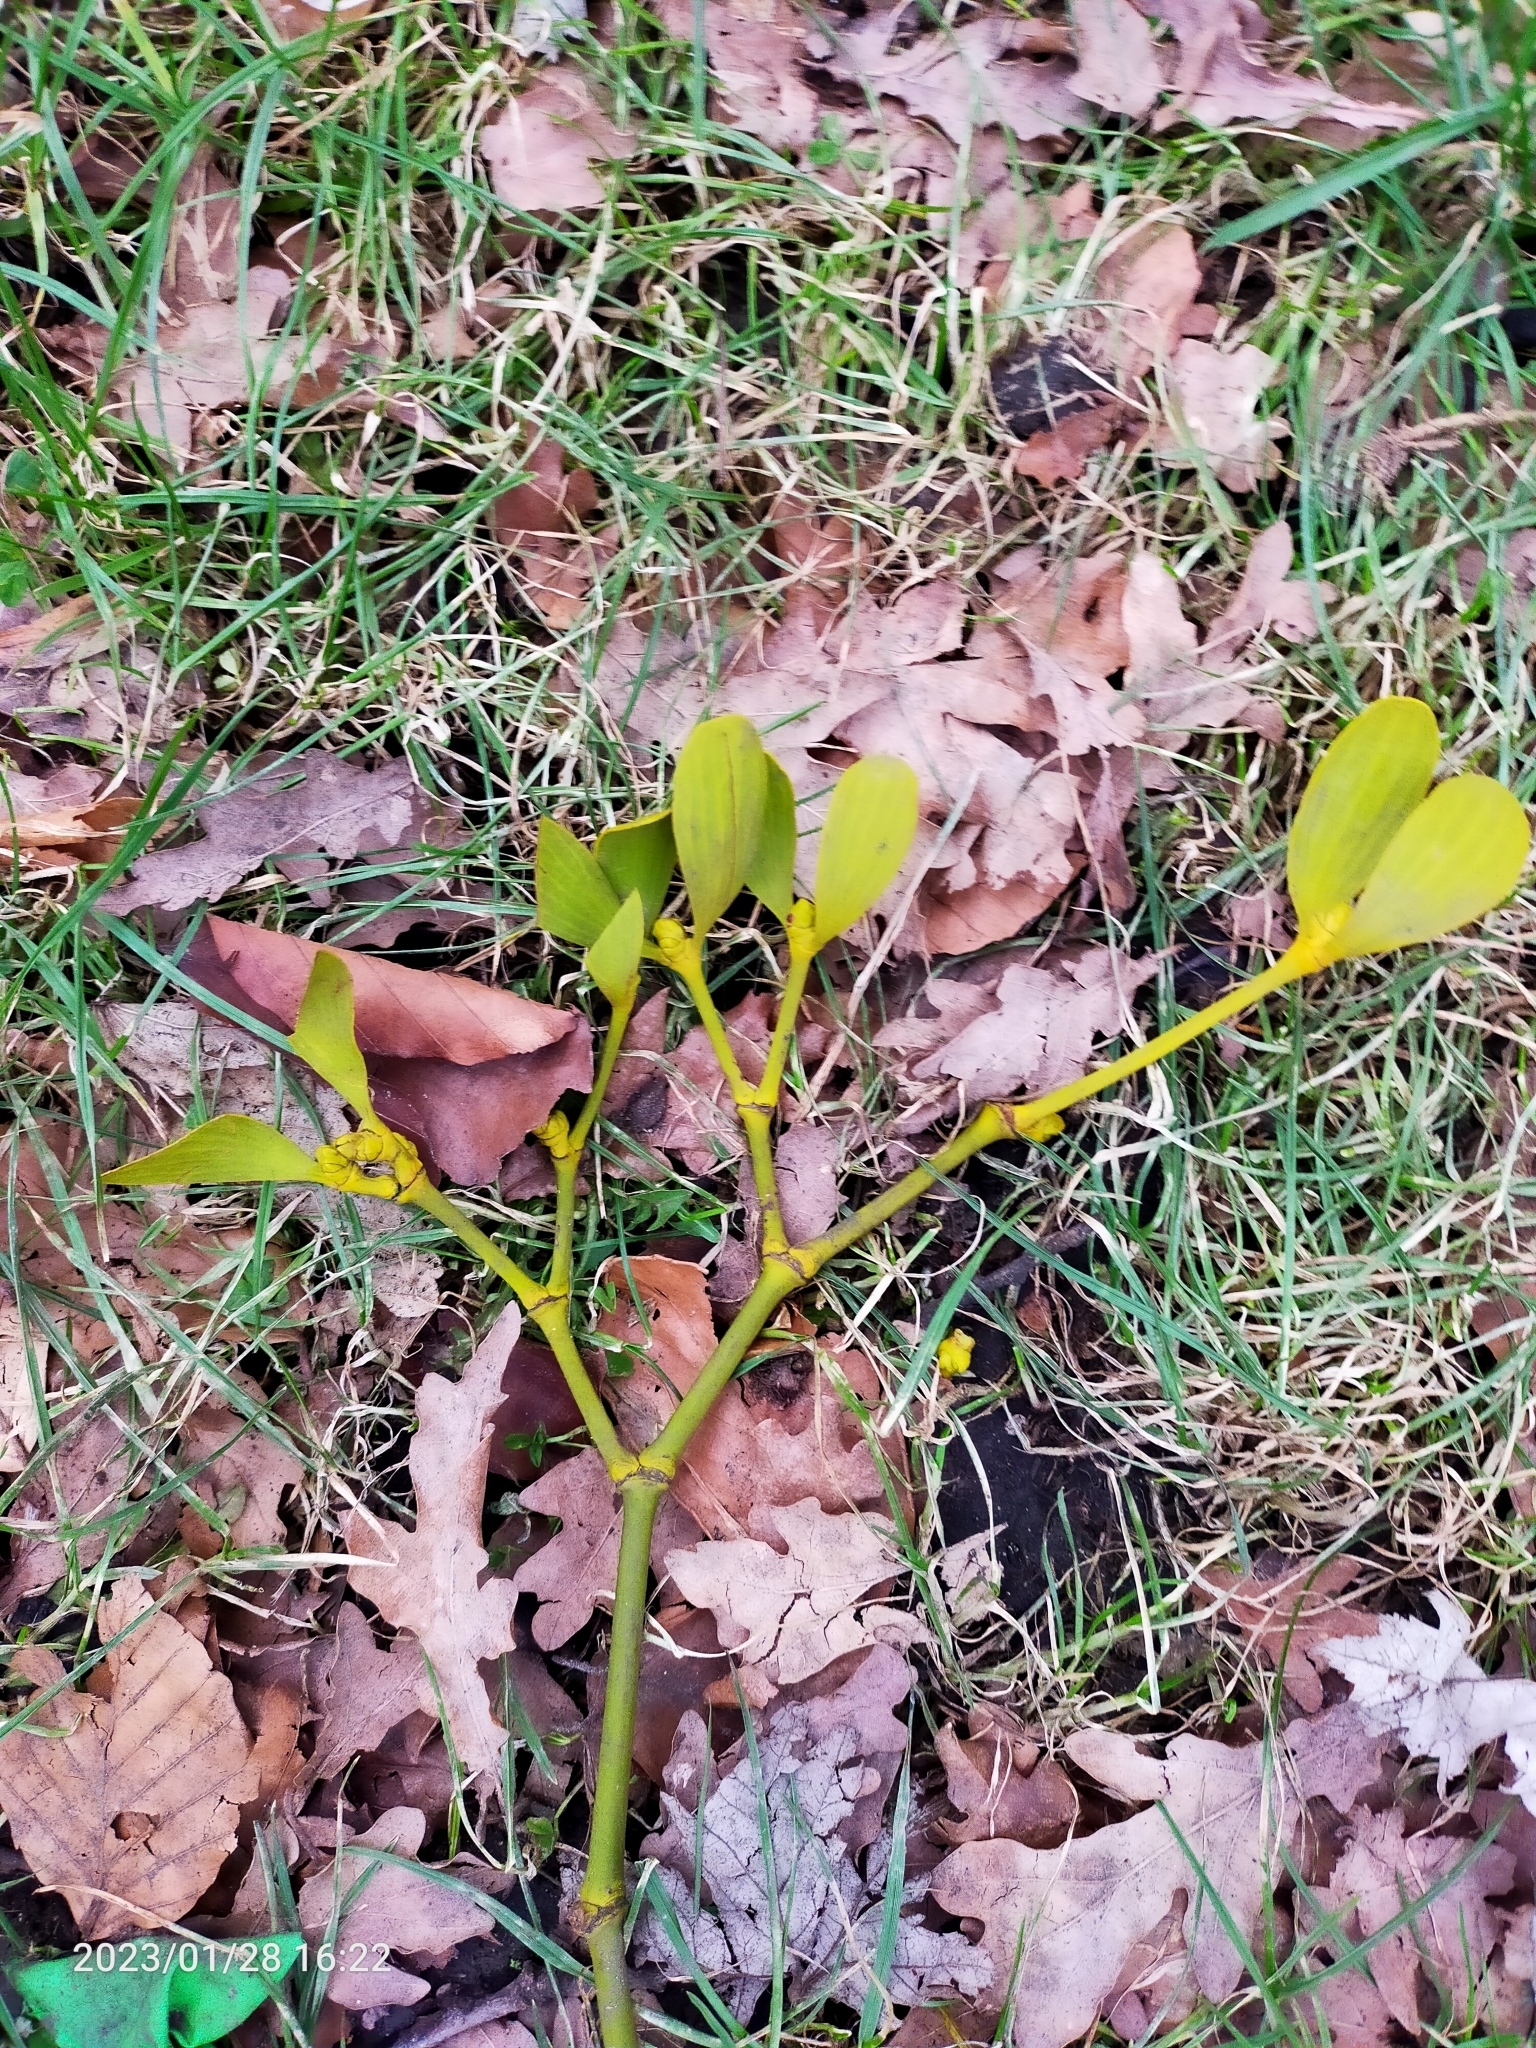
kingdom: Plantae
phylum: Tracheophyta
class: Magnoliopsida
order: Santalales
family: Viscaceae
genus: Viscum
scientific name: Viscum album
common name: Mistletoe
